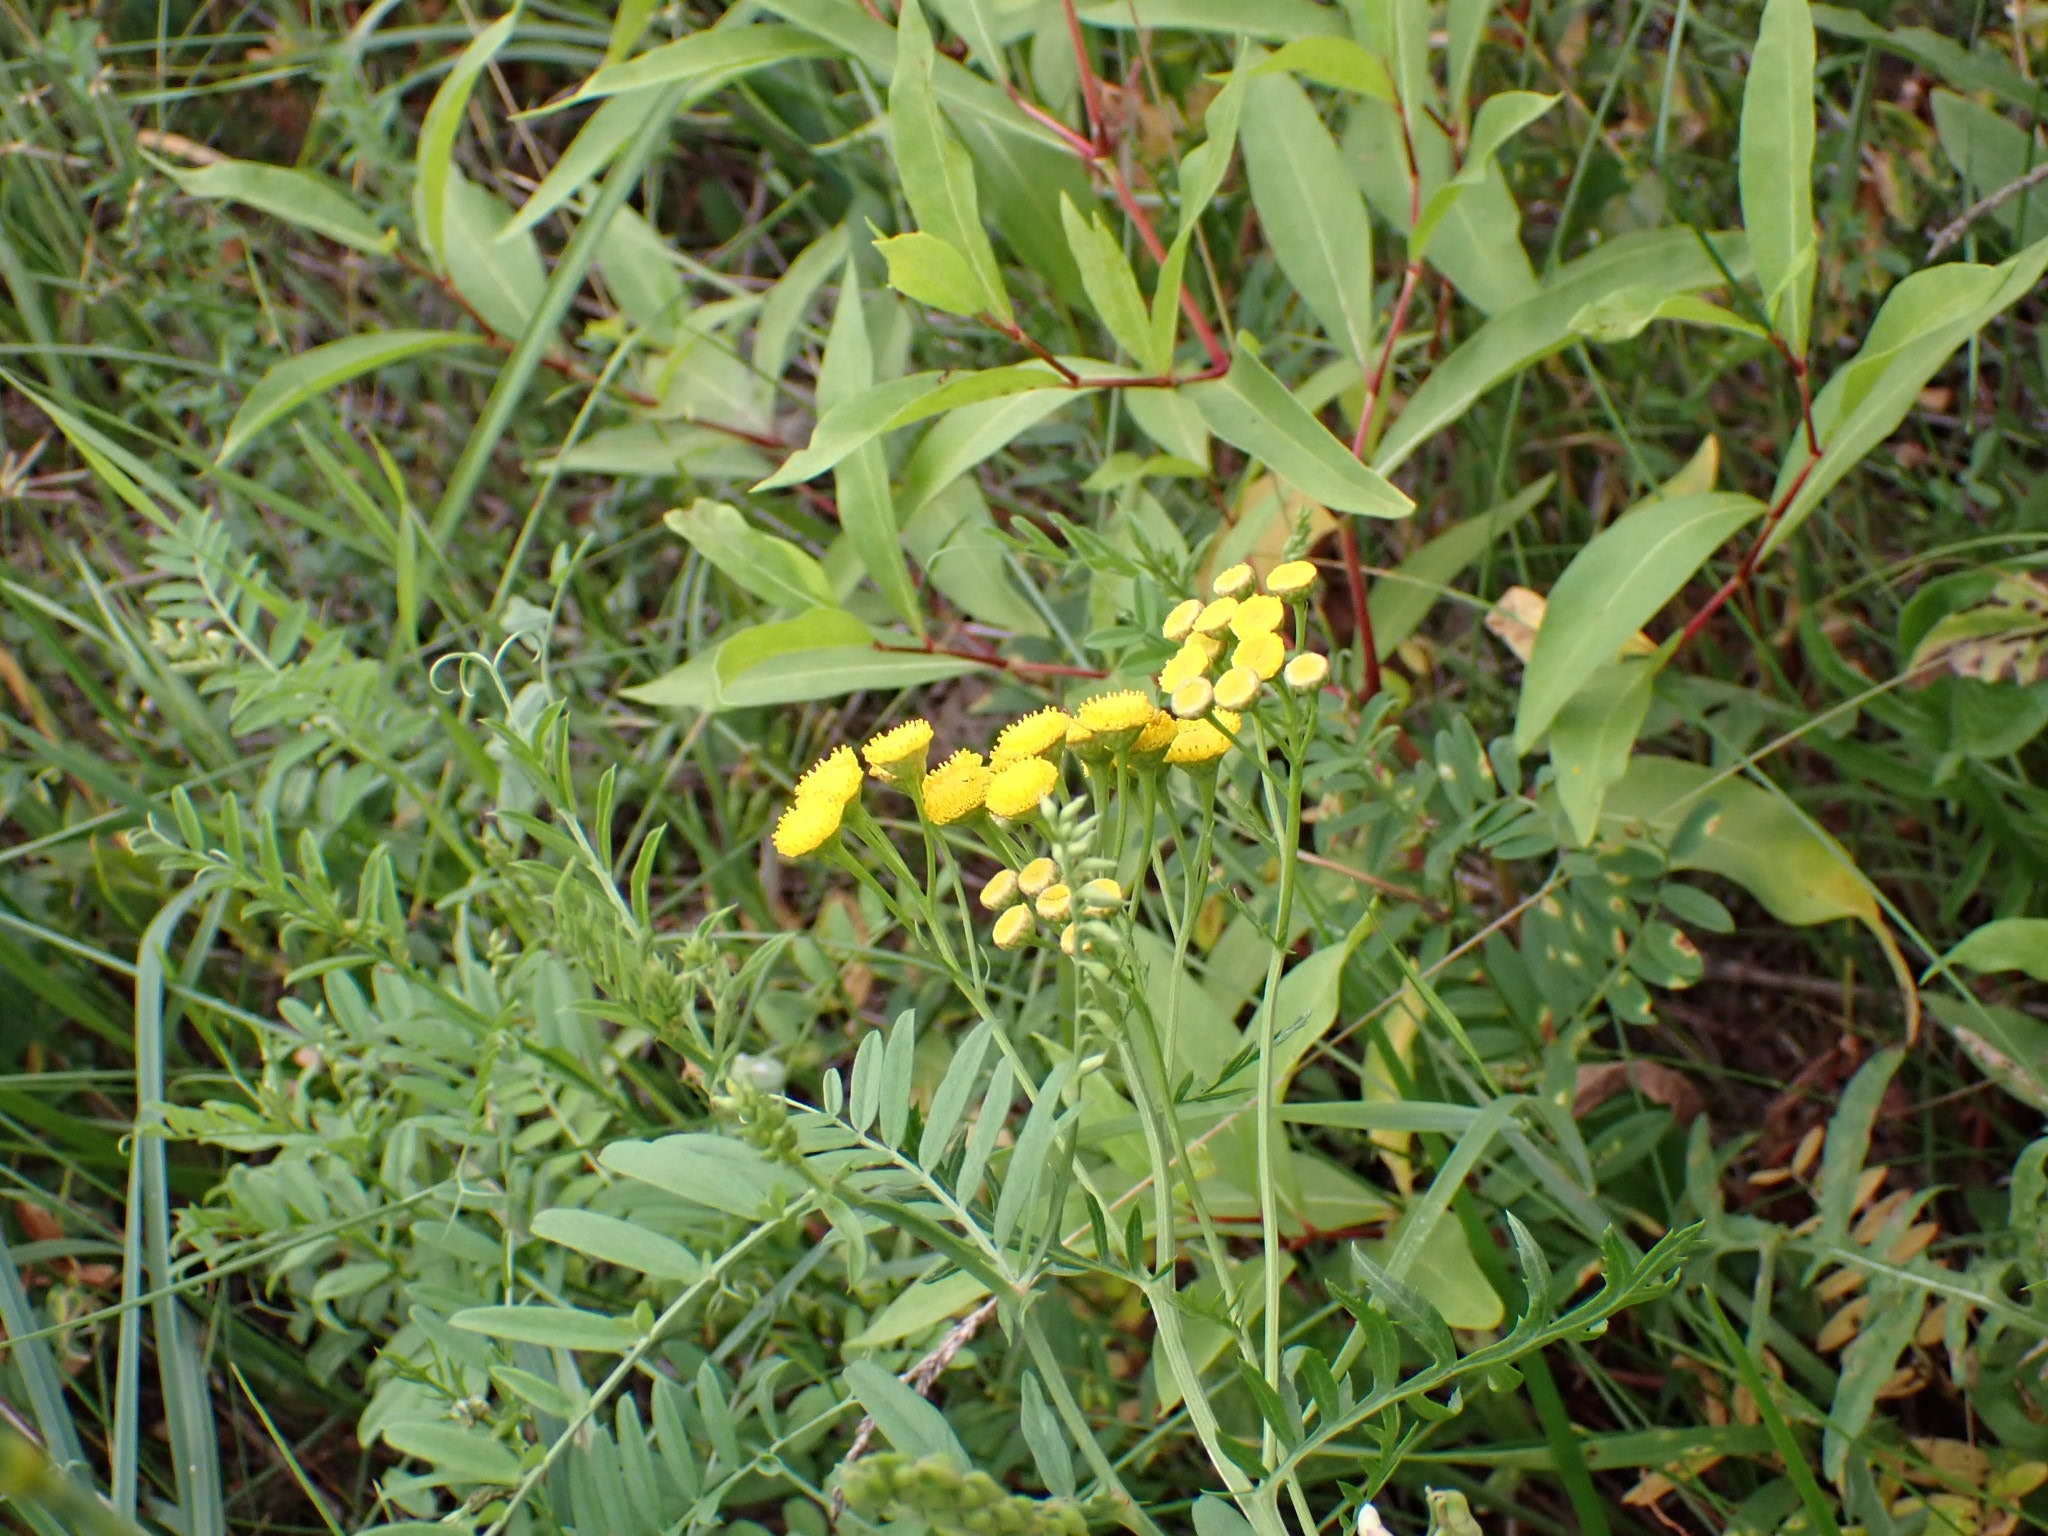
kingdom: Plantae
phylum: Tracheophyta
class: Magnoliopsida
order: Asterales
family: Asteraceae
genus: Tanacetum
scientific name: Tanacetum vulgare
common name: Common tansy
